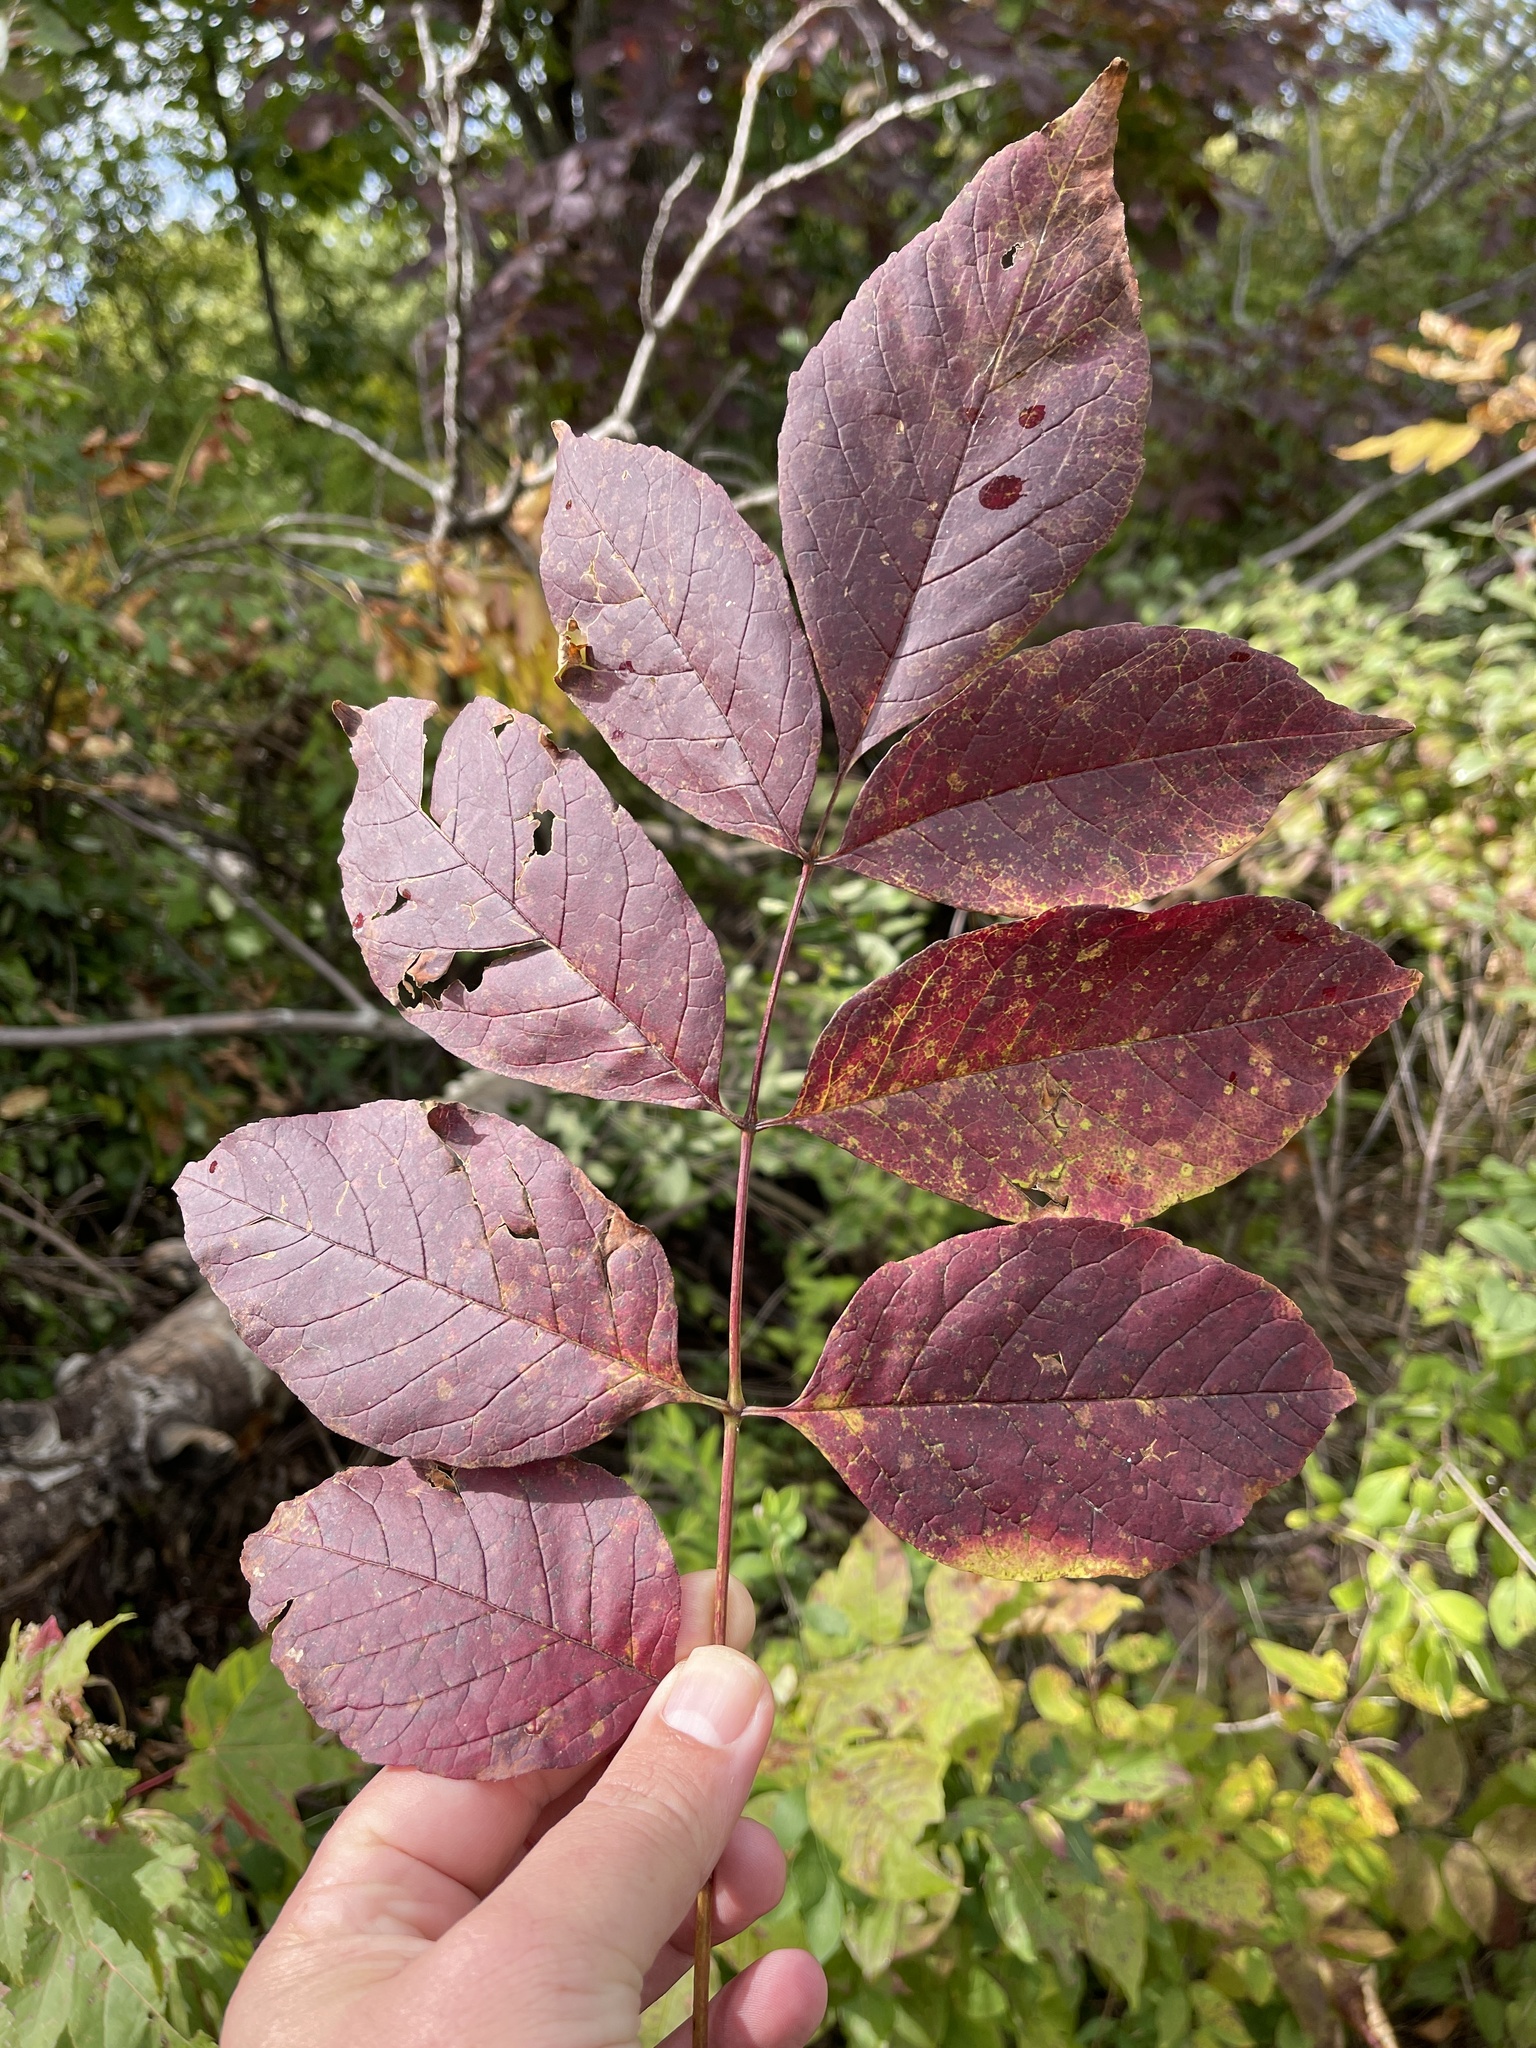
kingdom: Plantae
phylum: Tracheophyta
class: Magnoliopsida
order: Lamiales
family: Oleaceae
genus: Fraxinus
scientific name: Fraxinus americana
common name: White ash
